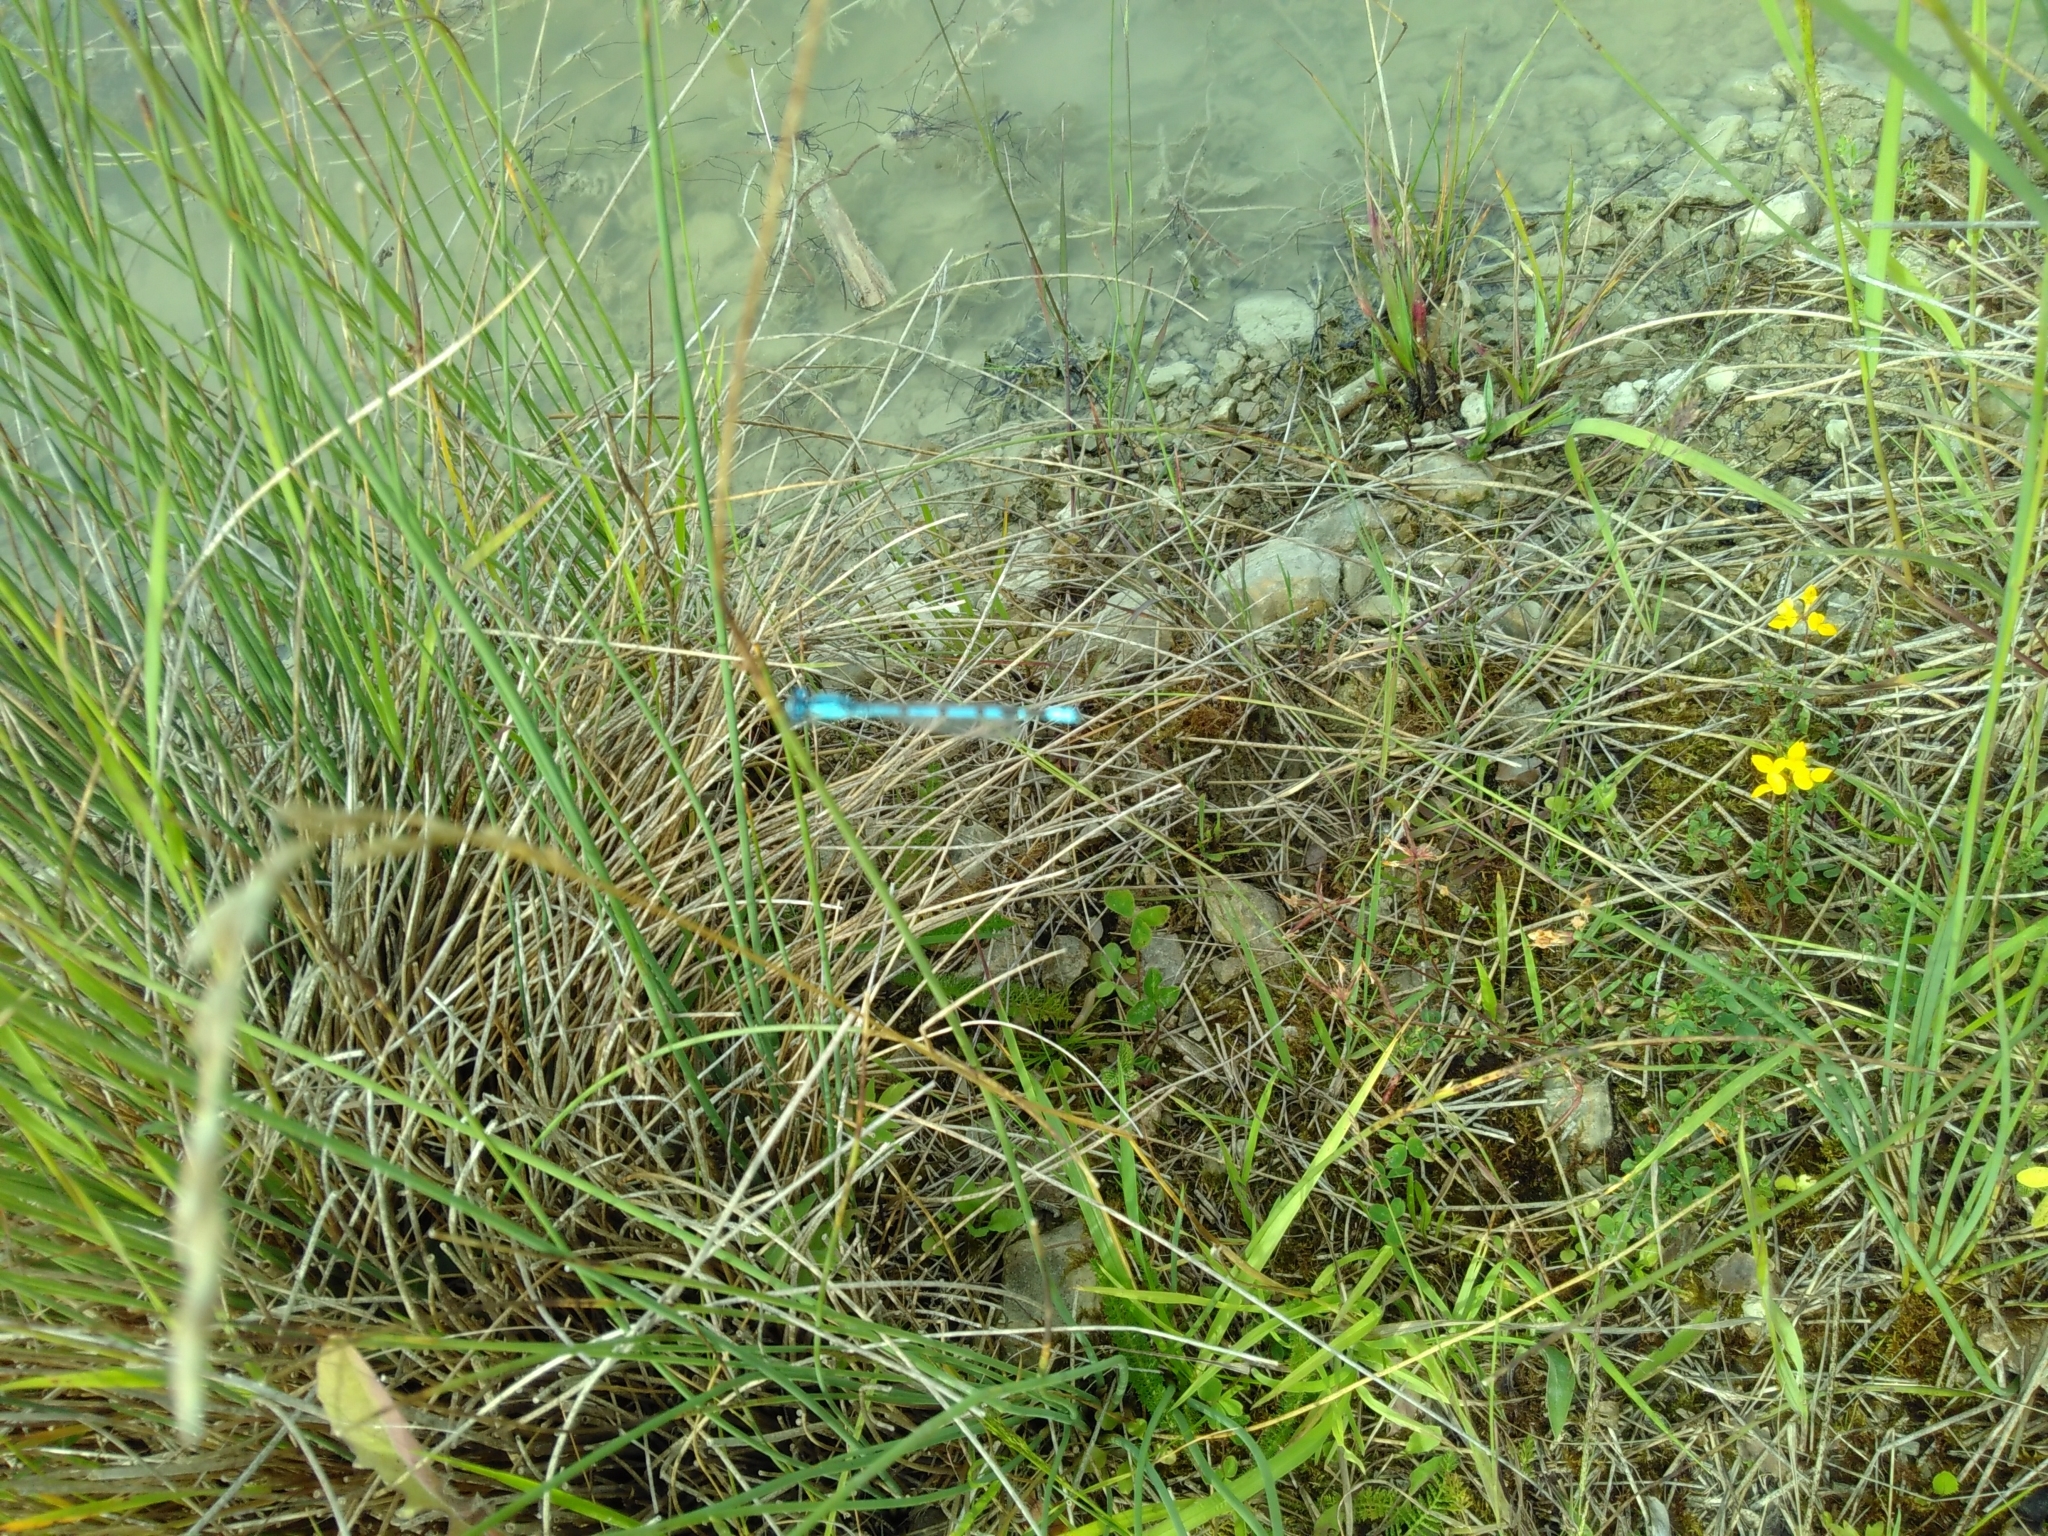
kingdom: Animalia
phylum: Arthropoda
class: Insecta
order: Odonata
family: Coenagrionidae
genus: Enallagma
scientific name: Enallagma cyathigerum
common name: Common blue damselfly
